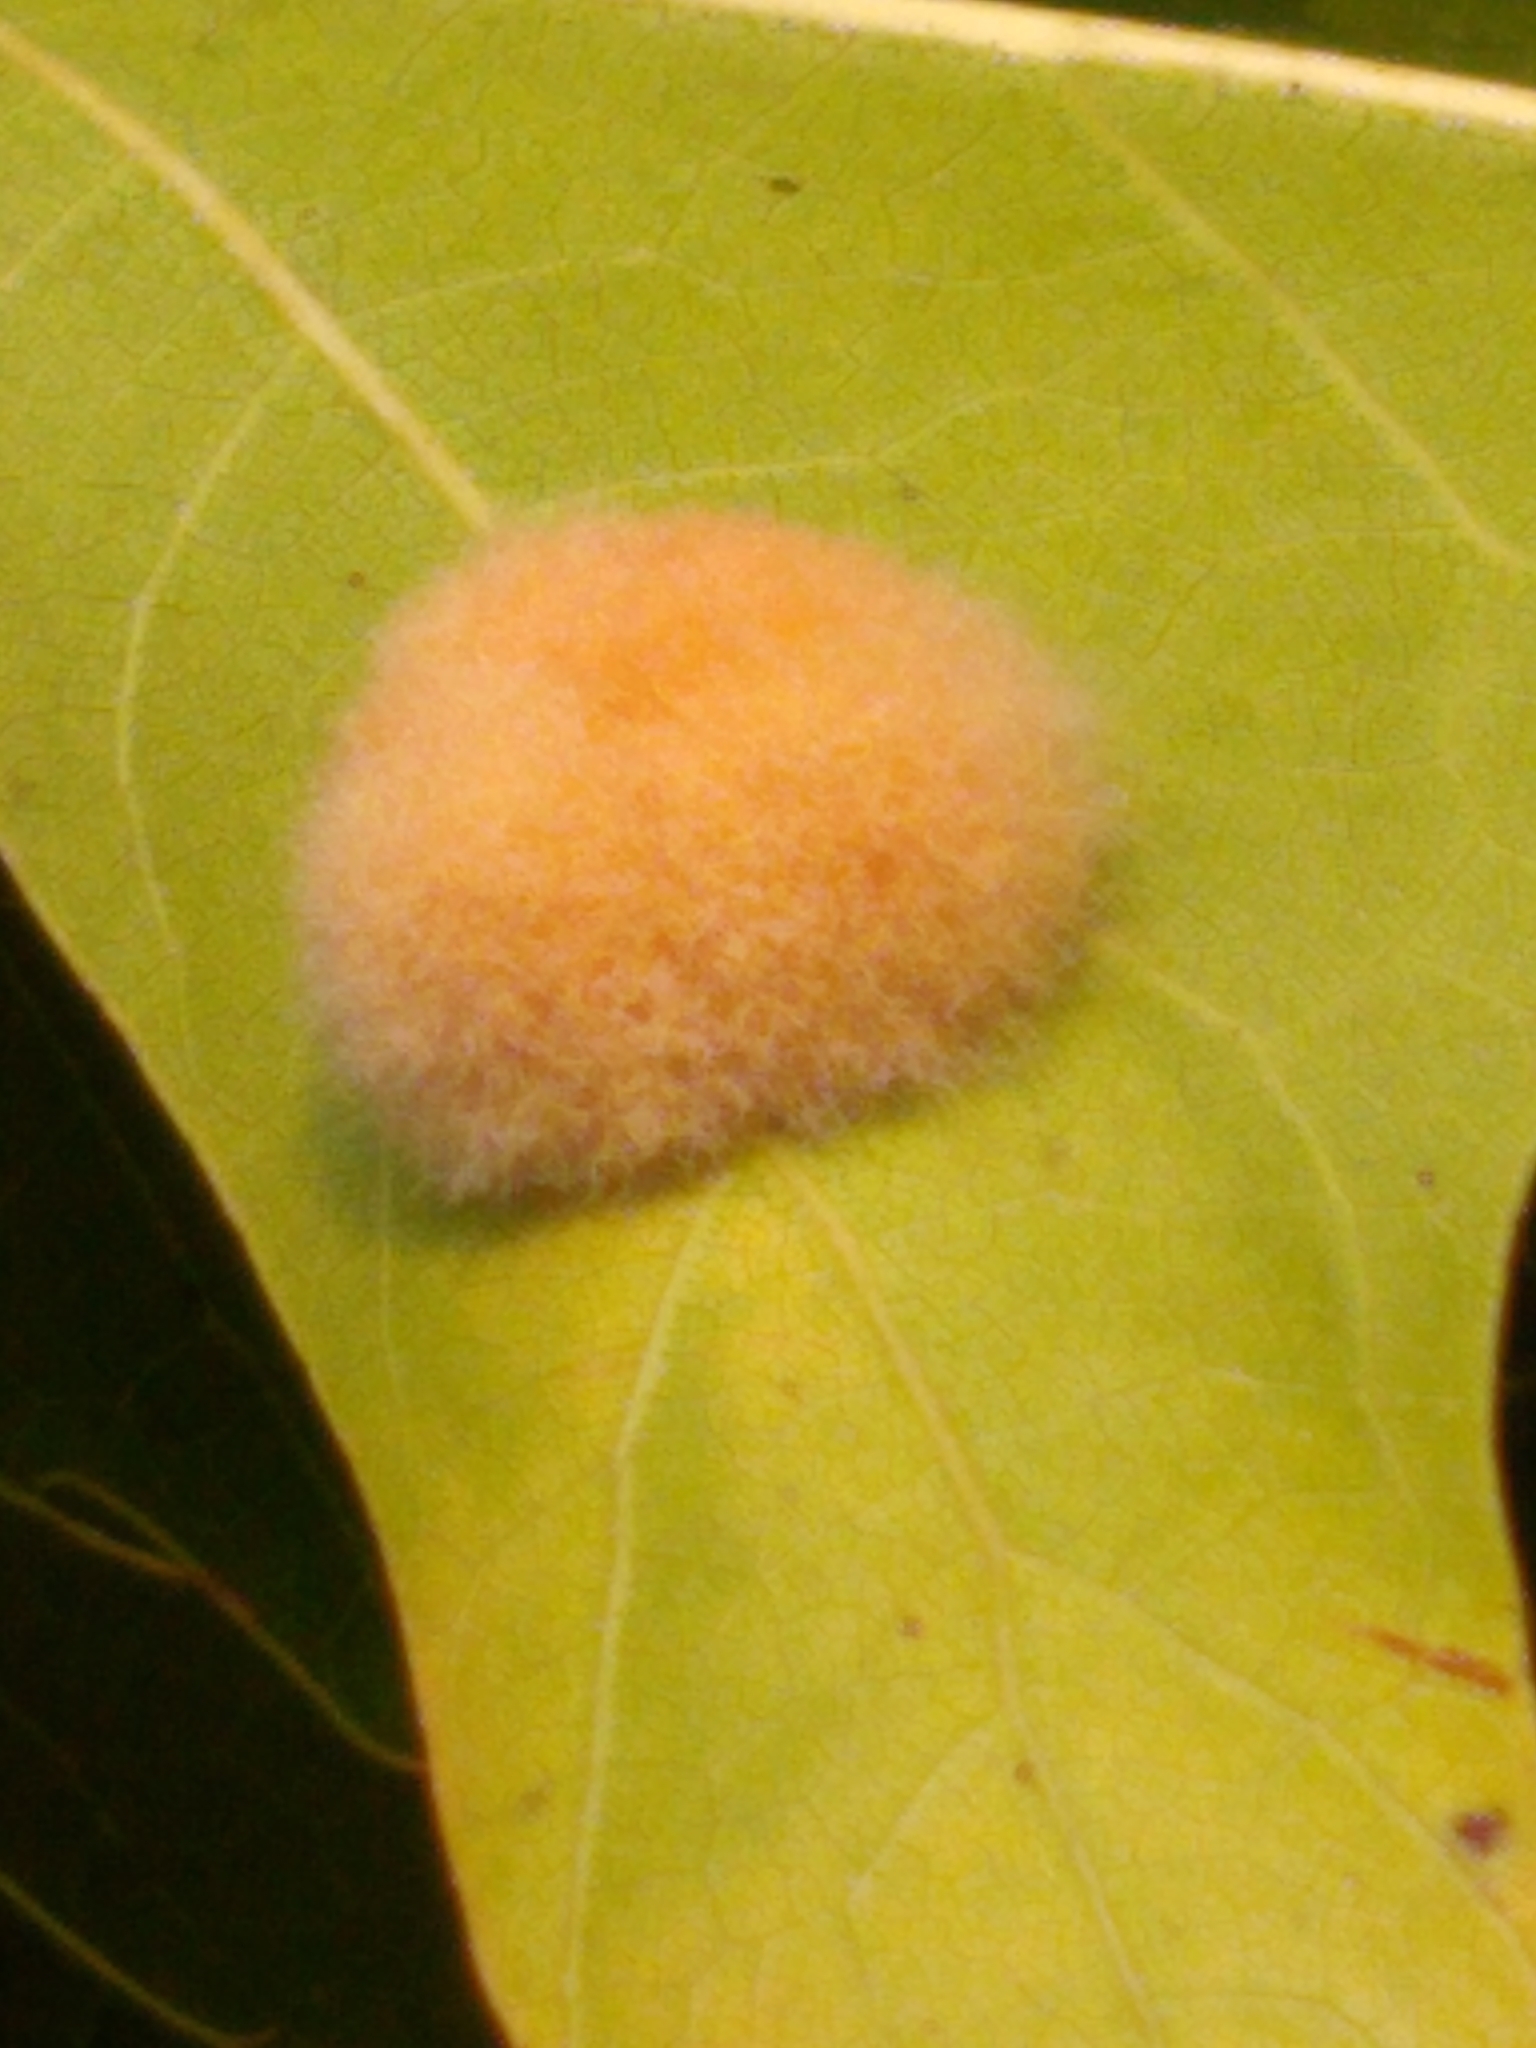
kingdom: Animalia
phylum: Arthropoda
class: Insecta
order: Hymenoptera
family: Cynipidae
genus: Callirhytis
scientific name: Callirhytis
